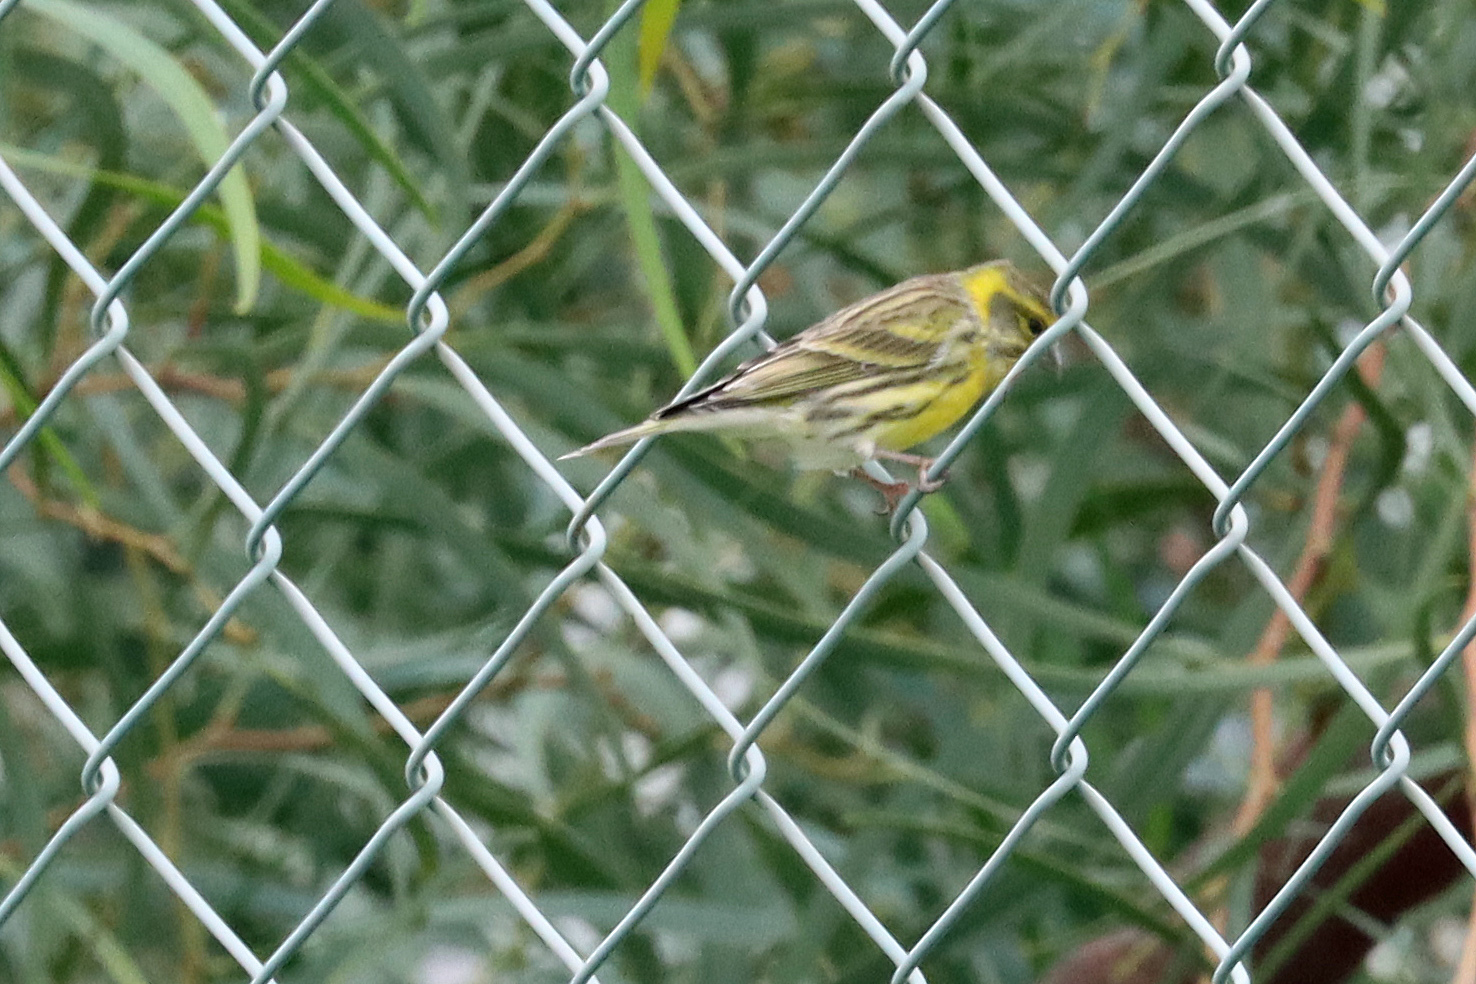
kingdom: Animalia
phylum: Chordata
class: Aves
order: Passeriformes
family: Fringillidae
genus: Serinus
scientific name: Serinus serinus
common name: European serin
